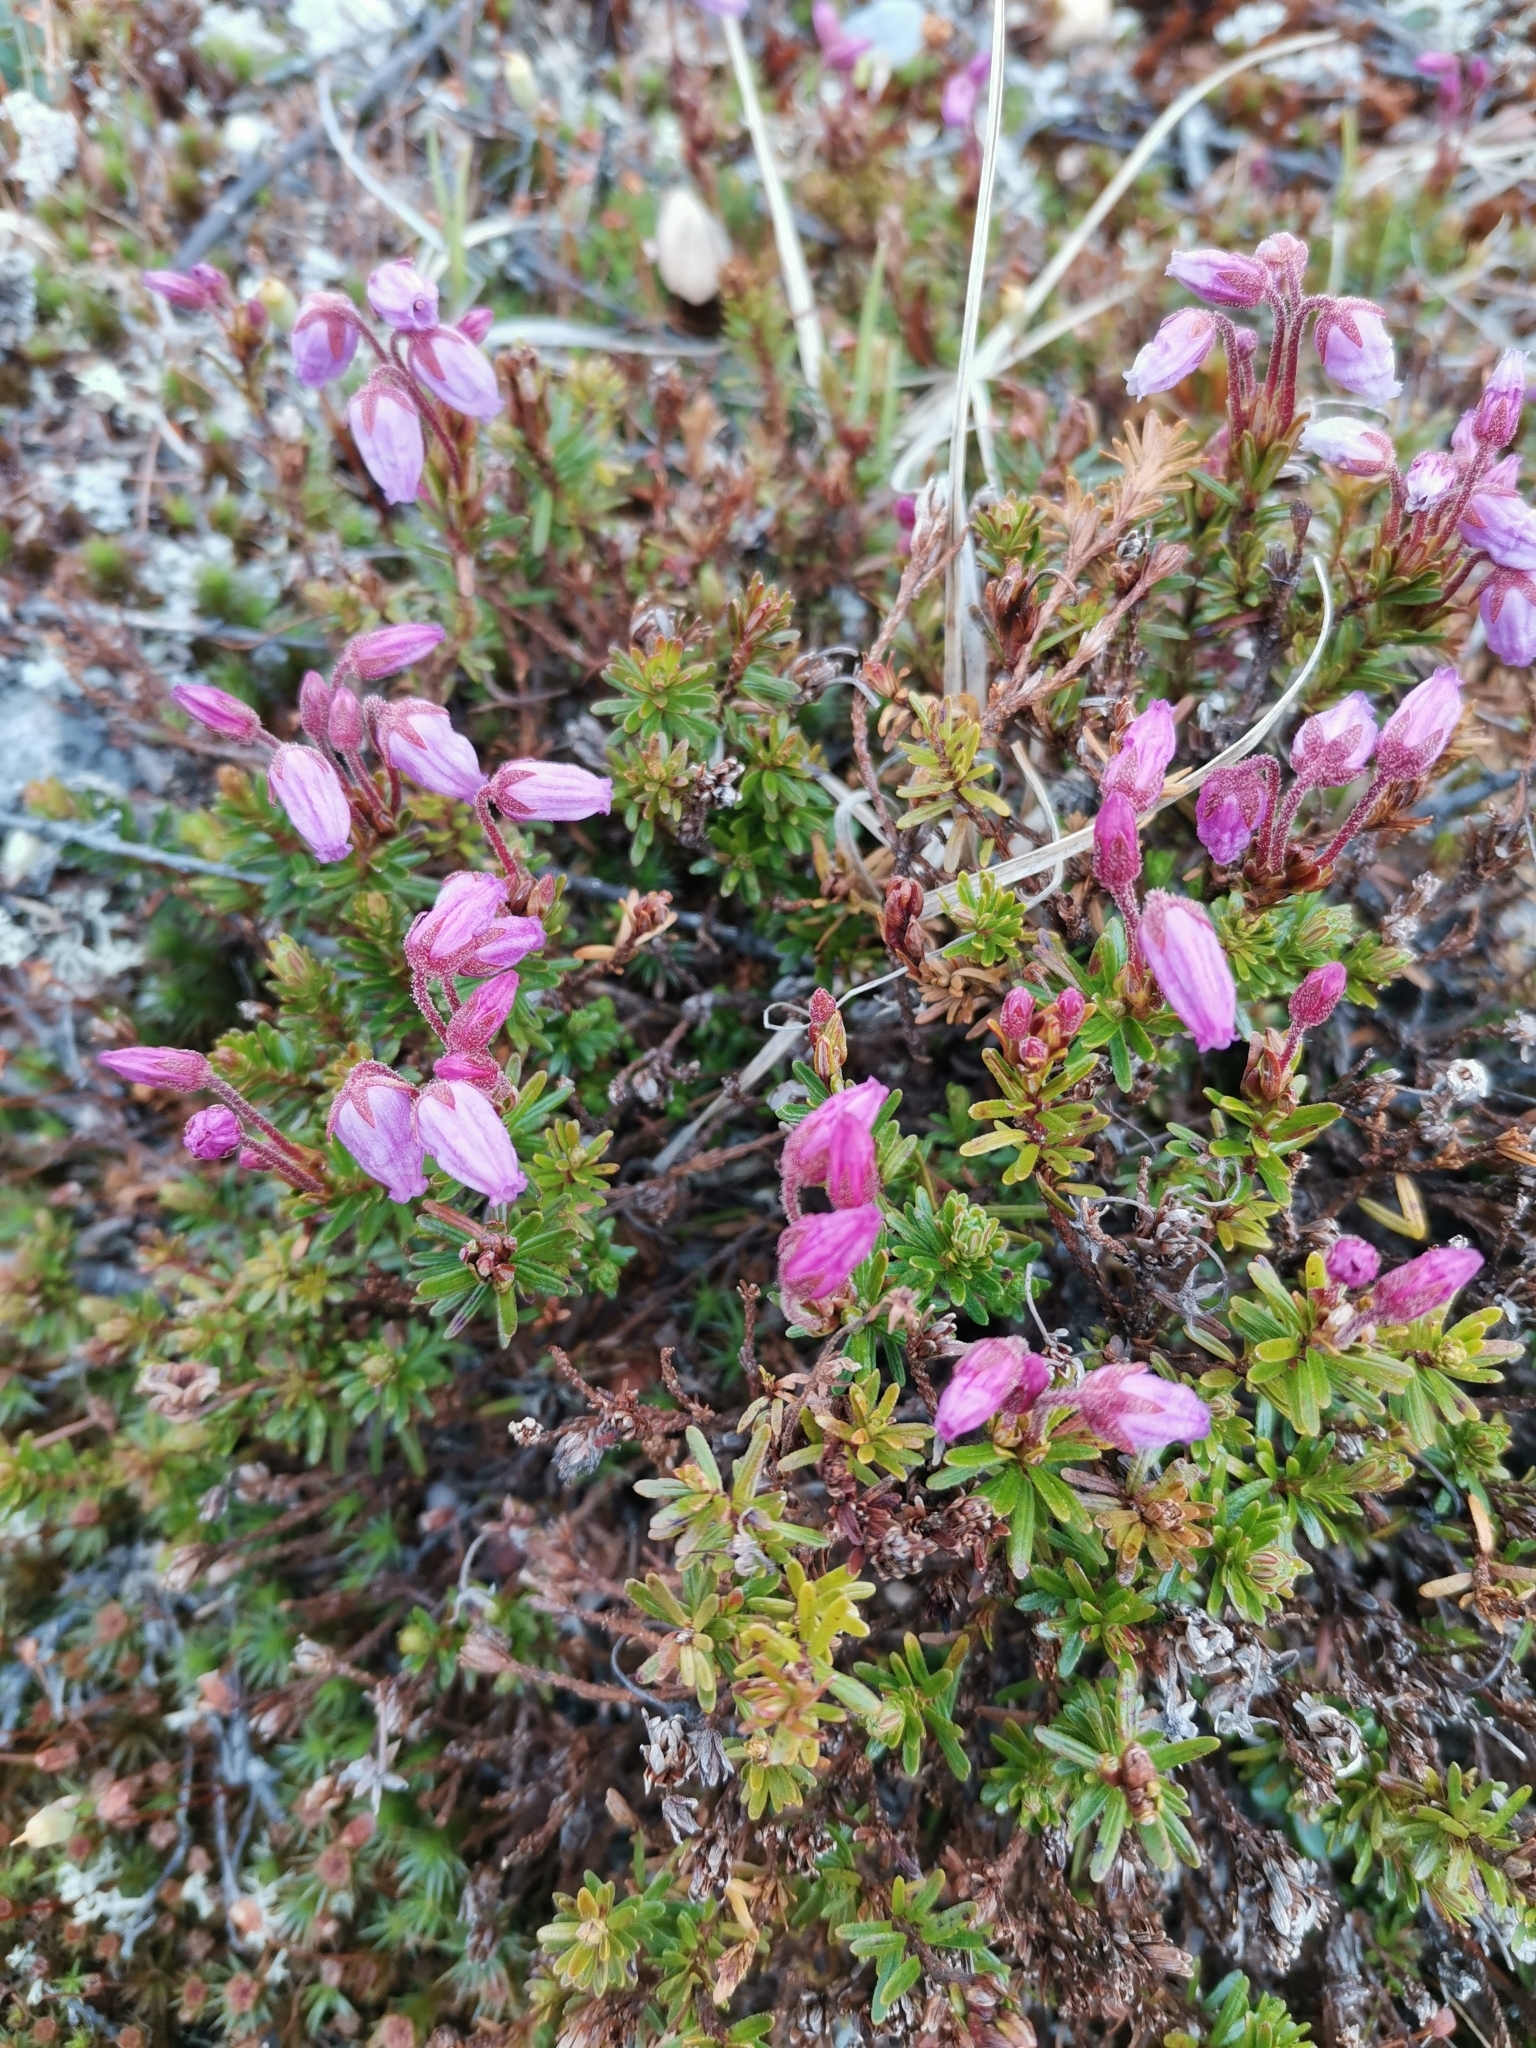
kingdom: Plantae
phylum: Tracheophyta
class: Magnoliopsida
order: Ericales
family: Ericaceae
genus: Phyllodoce
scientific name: Phyllodoce caerulea
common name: Blue heath
